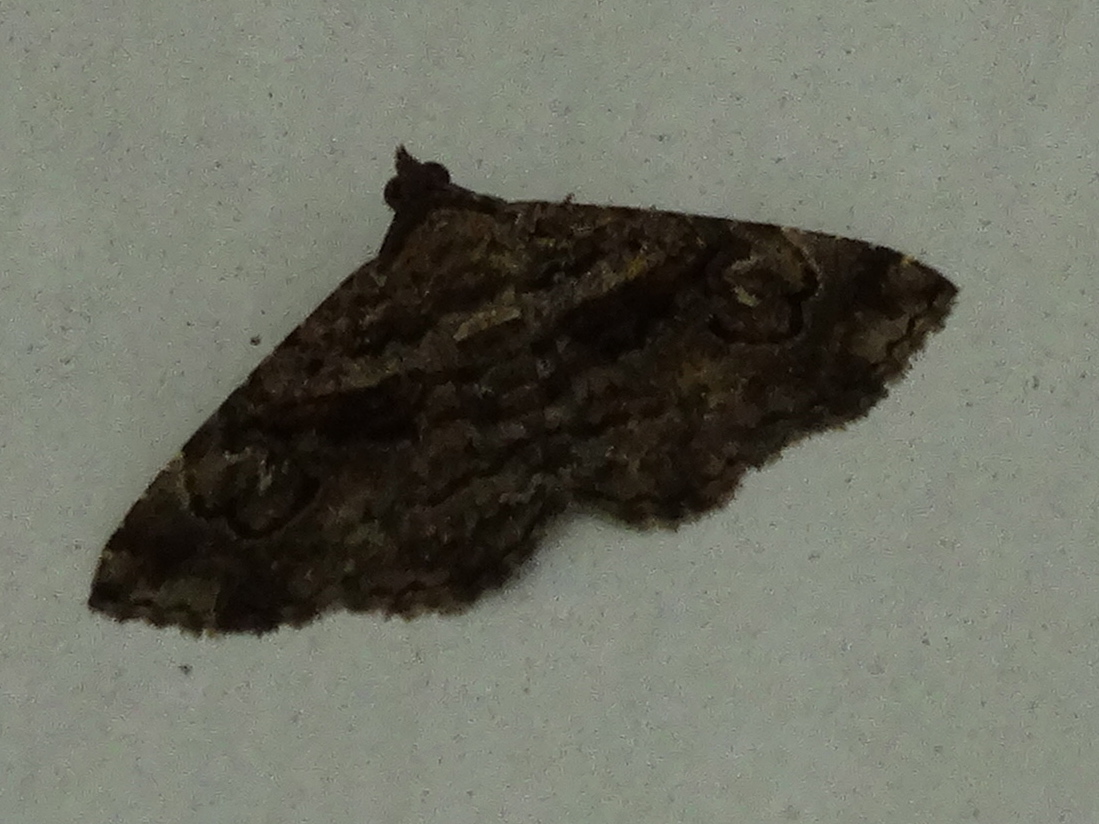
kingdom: Animalia
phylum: Arthropoda
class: Insecta
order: Lepidoptera
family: Erebidae
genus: Toxonprucha
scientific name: Toxonprucha
